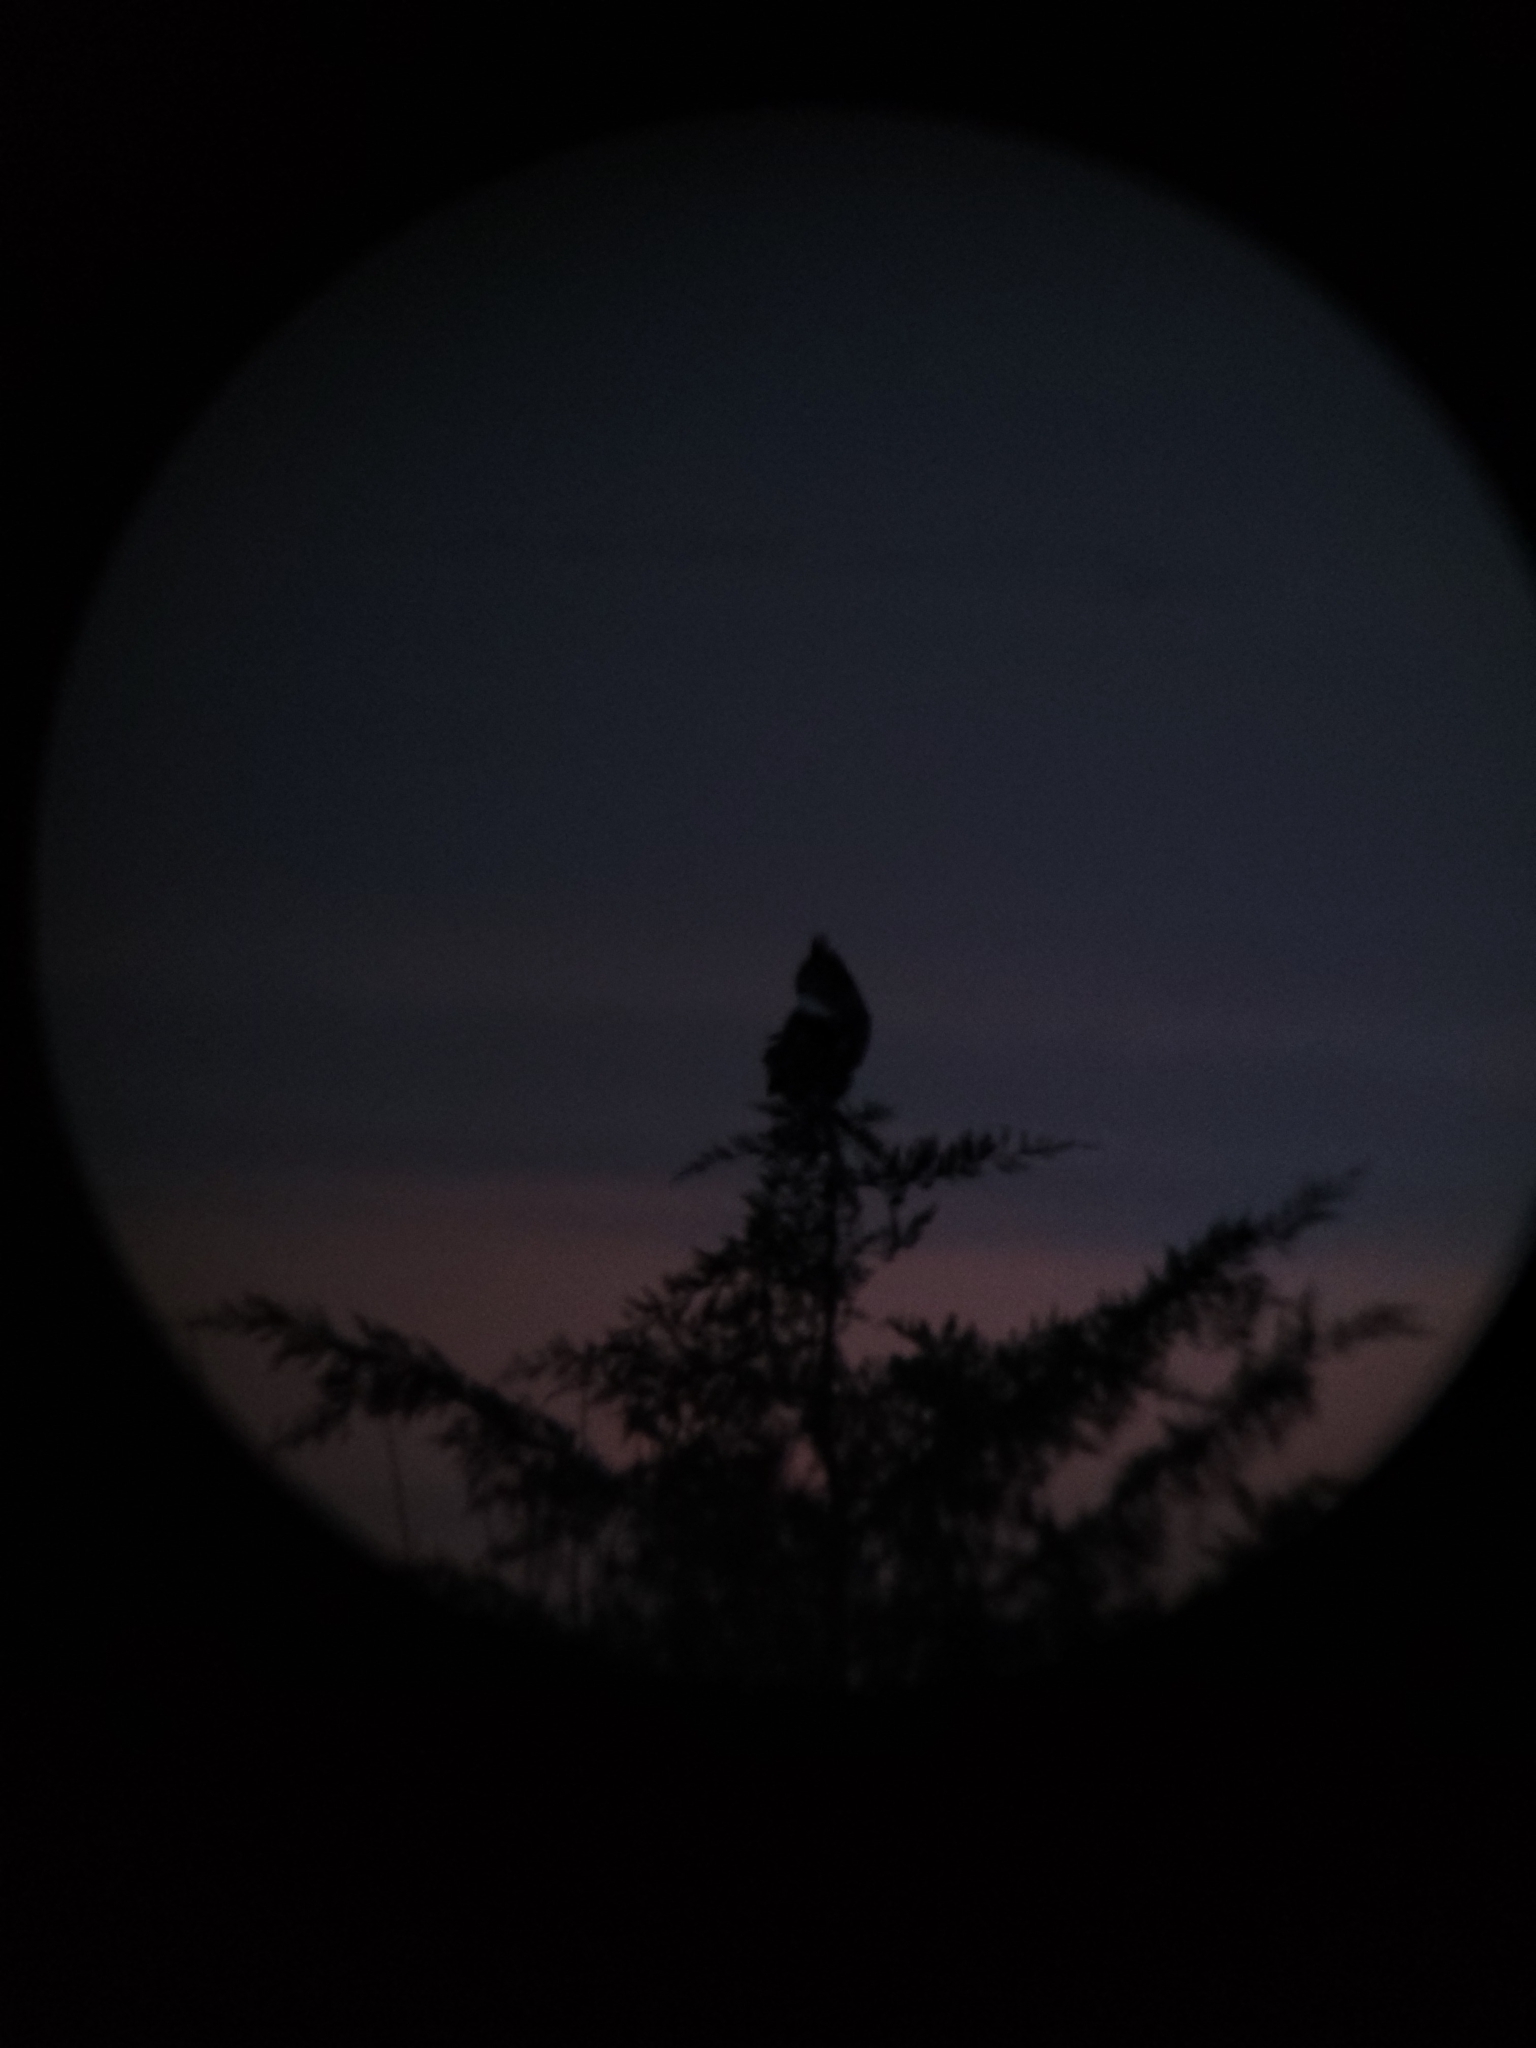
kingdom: Animalia
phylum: Chordata
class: Aves
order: Strigiformes
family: Strigidae
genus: Bubo
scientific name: Bubo virginianus
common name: Great horned owl
